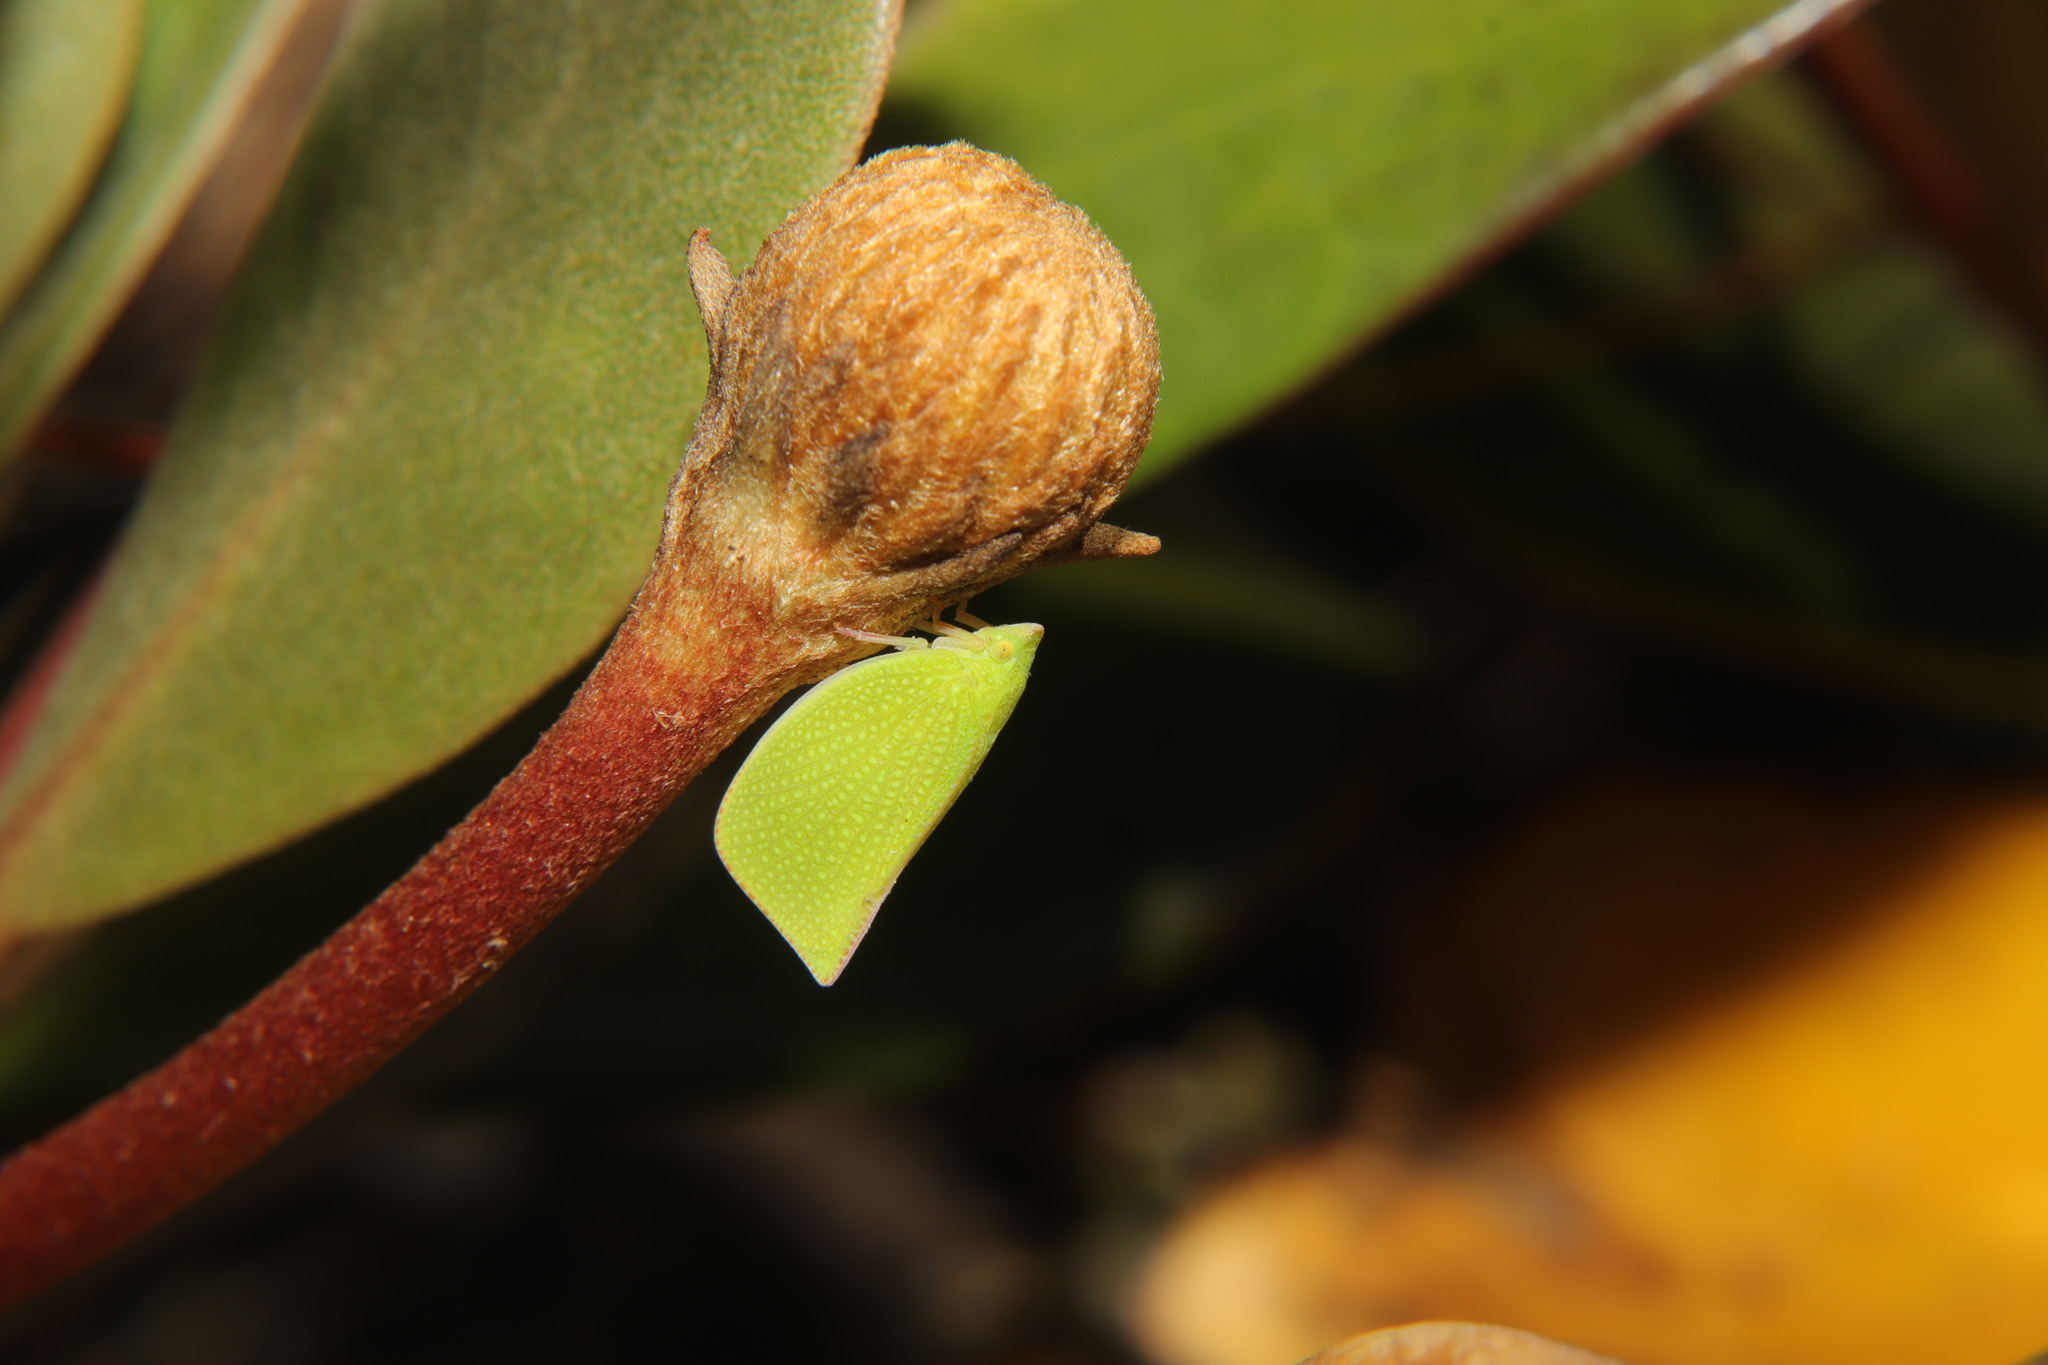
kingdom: Animalia
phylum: Arthropoda
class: Insecta
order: Hemiptera
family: Flatidae
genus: Siphanta
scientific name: Siphanta acuta
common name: Torpedo bug
